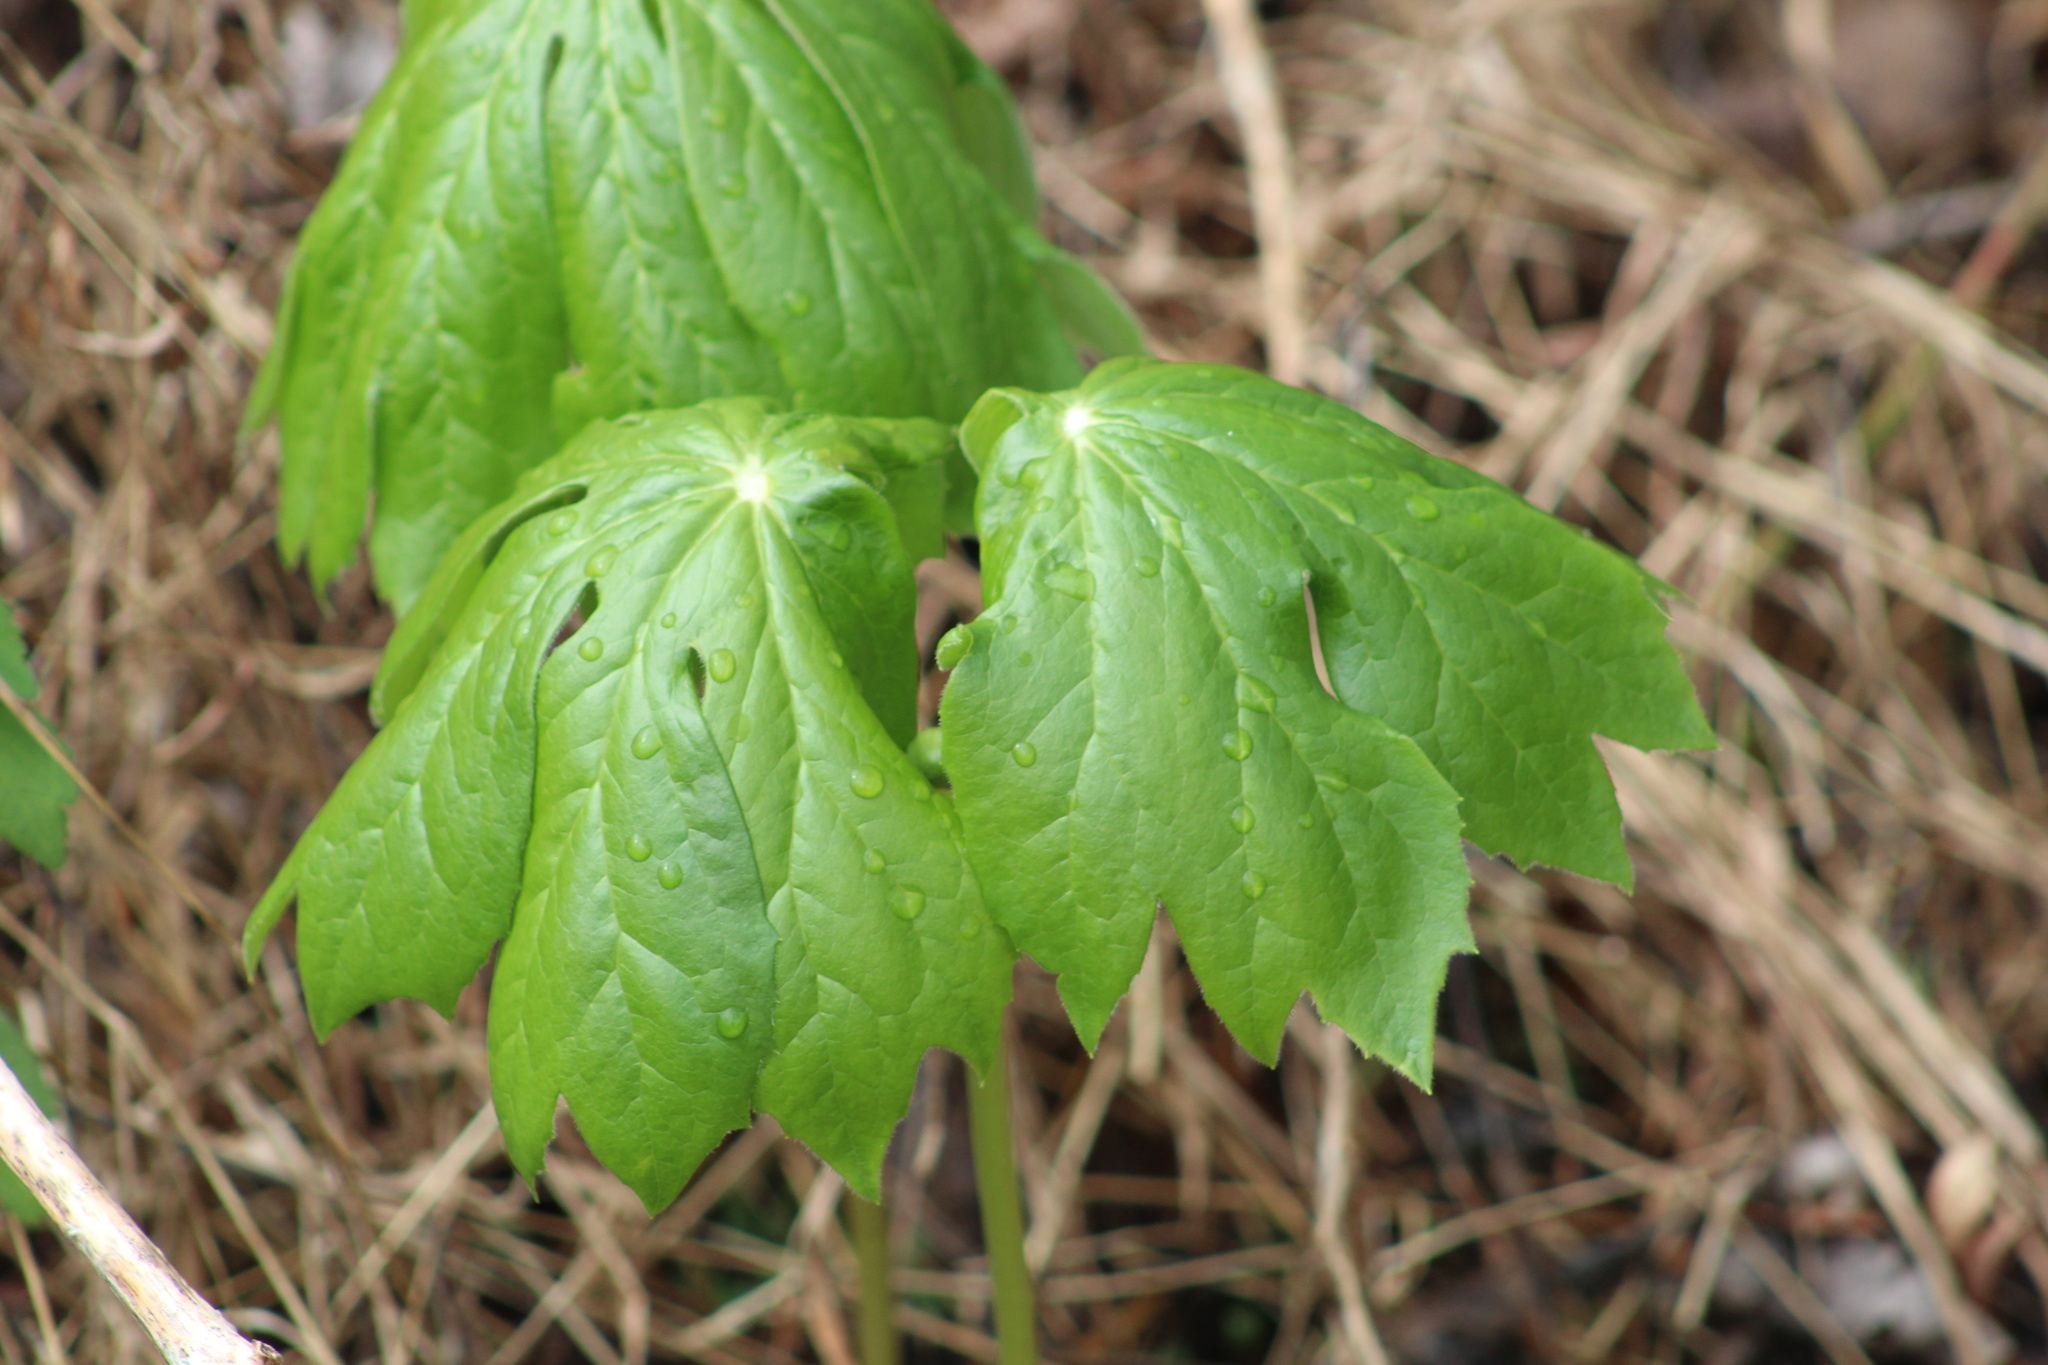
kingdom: Plantae
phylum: Tracheophyta
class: Magnoliopsida
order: Ranunculales
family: Berberidaceae
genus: Podophyllum
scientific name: Podophyllum peltatum
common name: Wild mandrake
